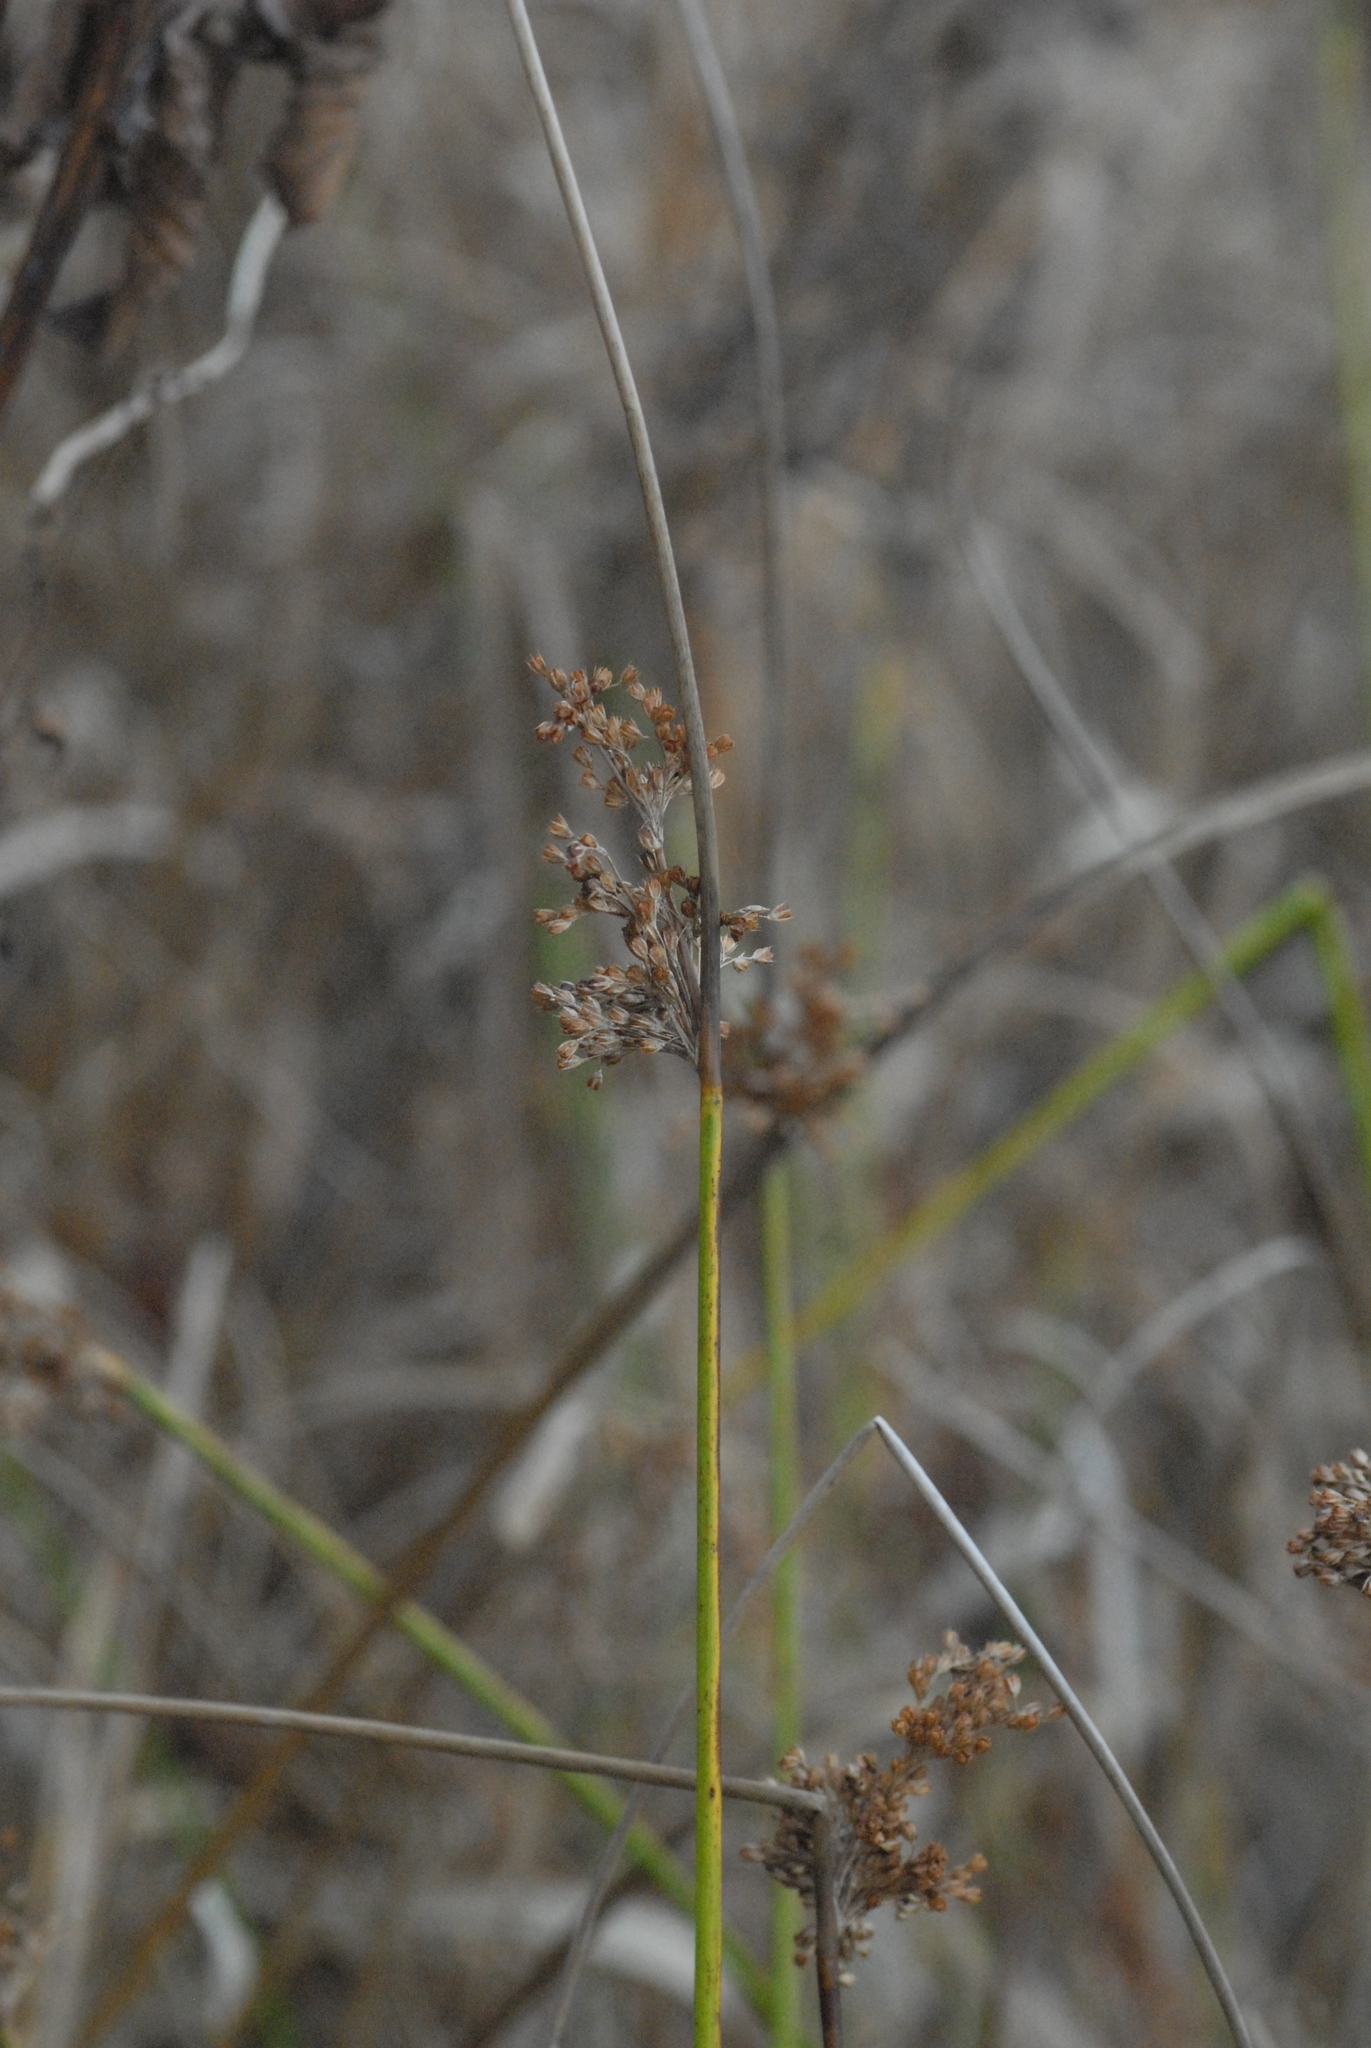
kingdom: Plantae
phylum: Tracheophyta
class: Liliopsida
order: Poales
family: Juncaceae
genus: Juncus
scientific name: Juncus effusus
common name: Soft rush
